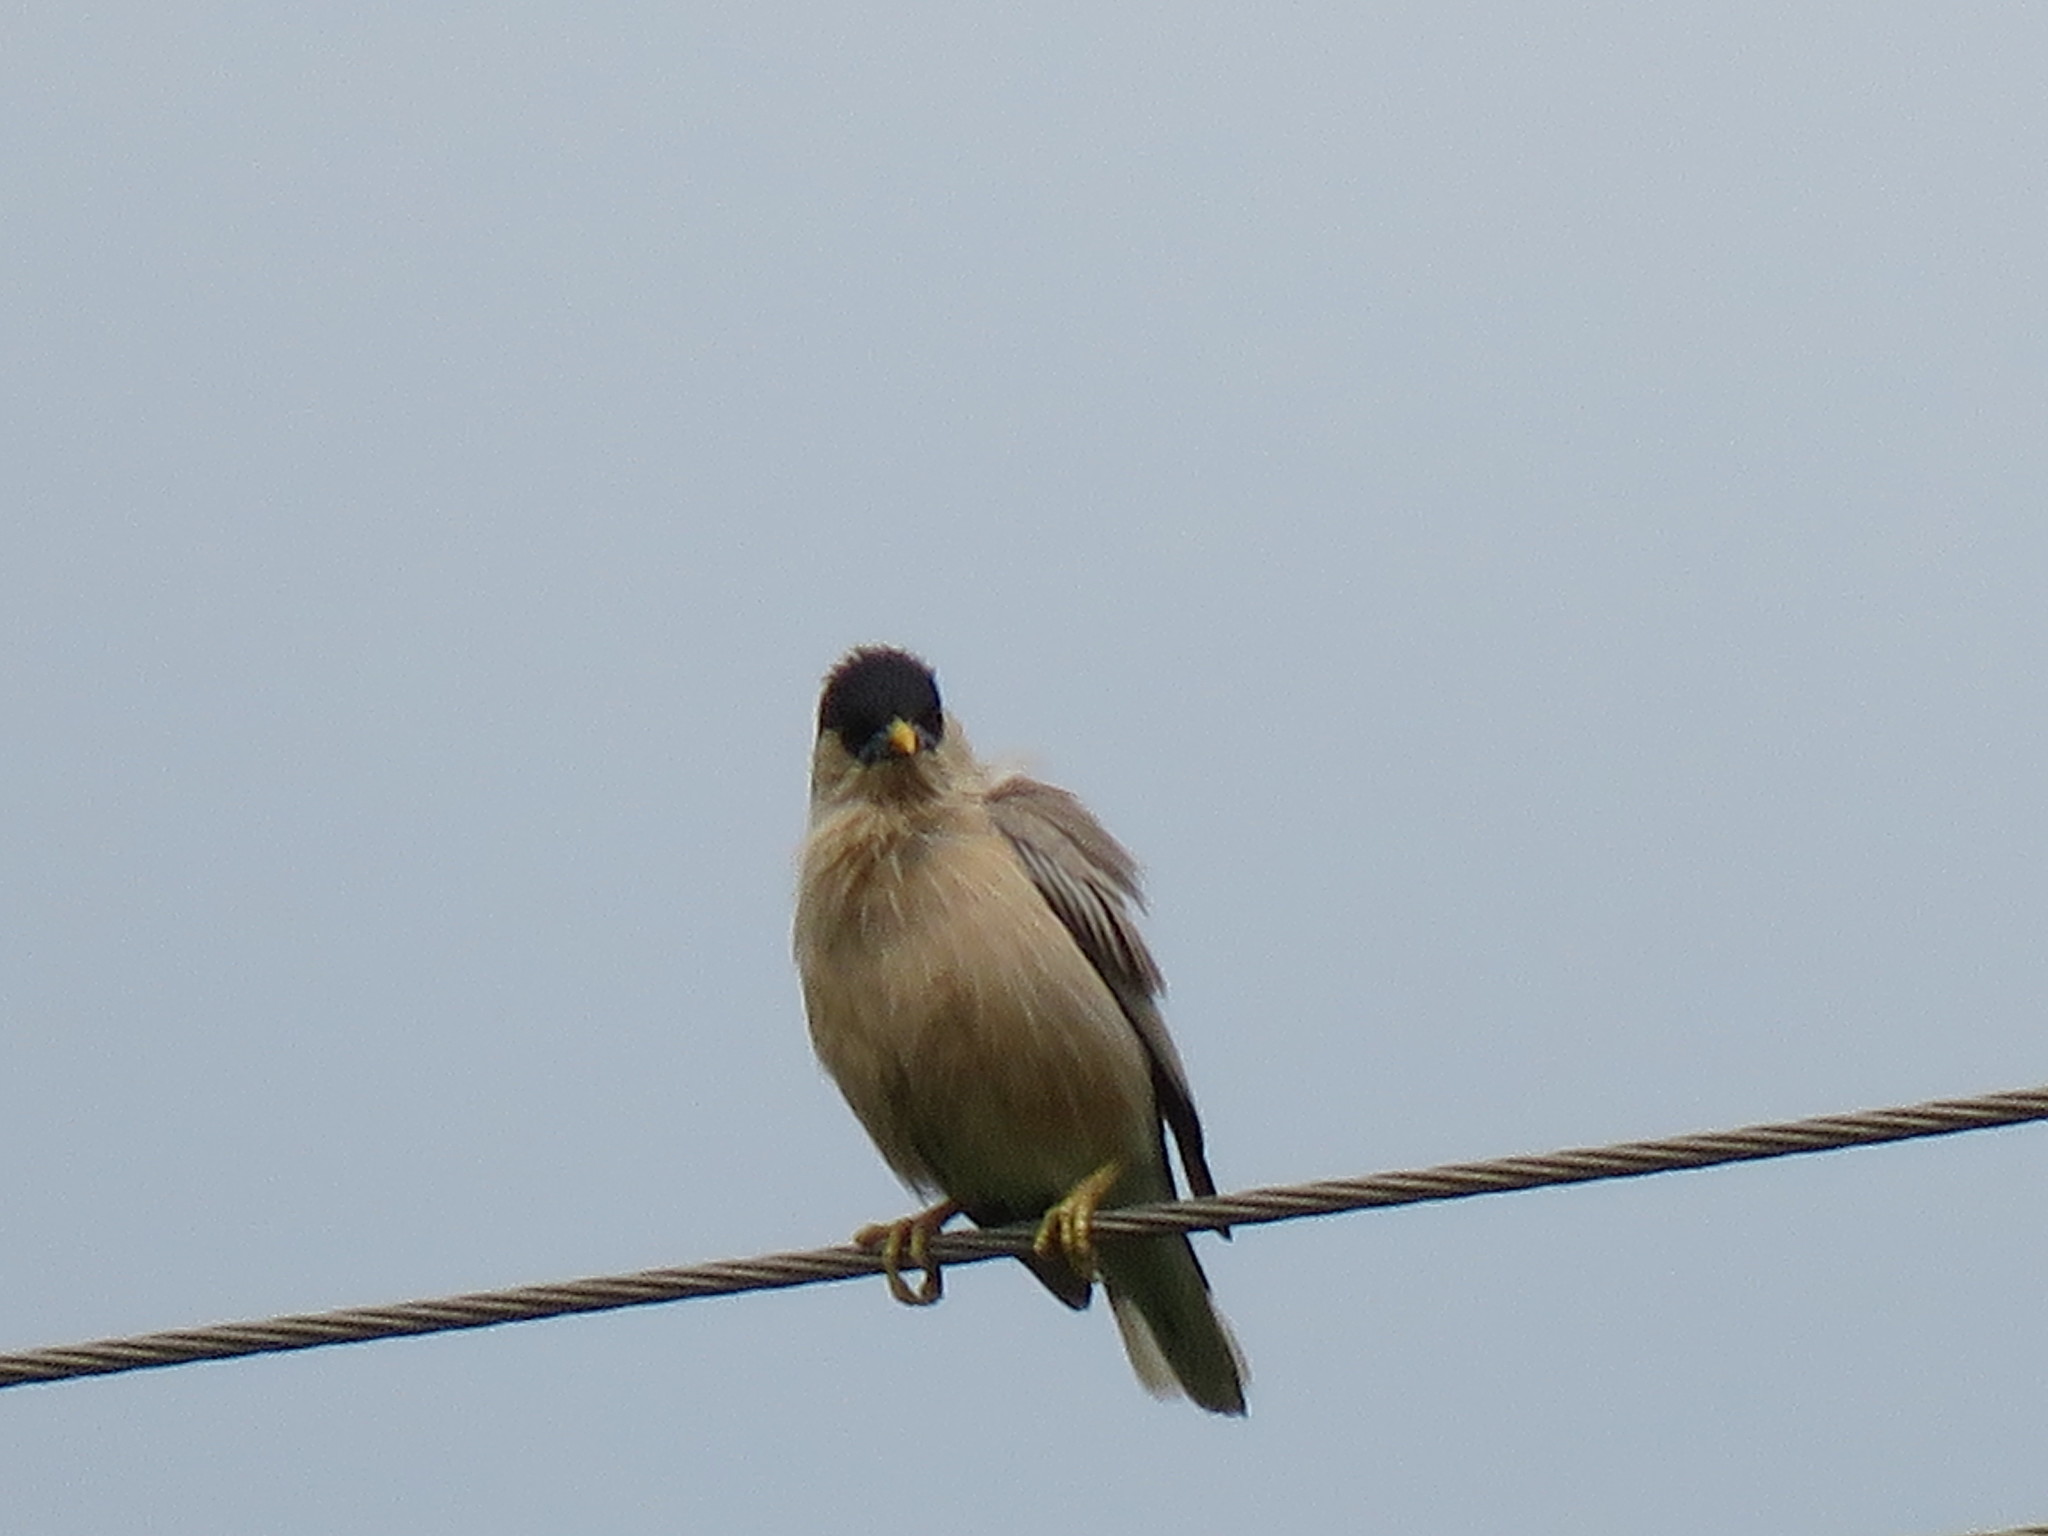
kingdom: Animalia
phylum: Chordata
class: Aves
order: Passeriformes
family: Sturnidae
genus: Sturnia
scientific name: Sturnia pagodarum
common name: Brahminy starling
